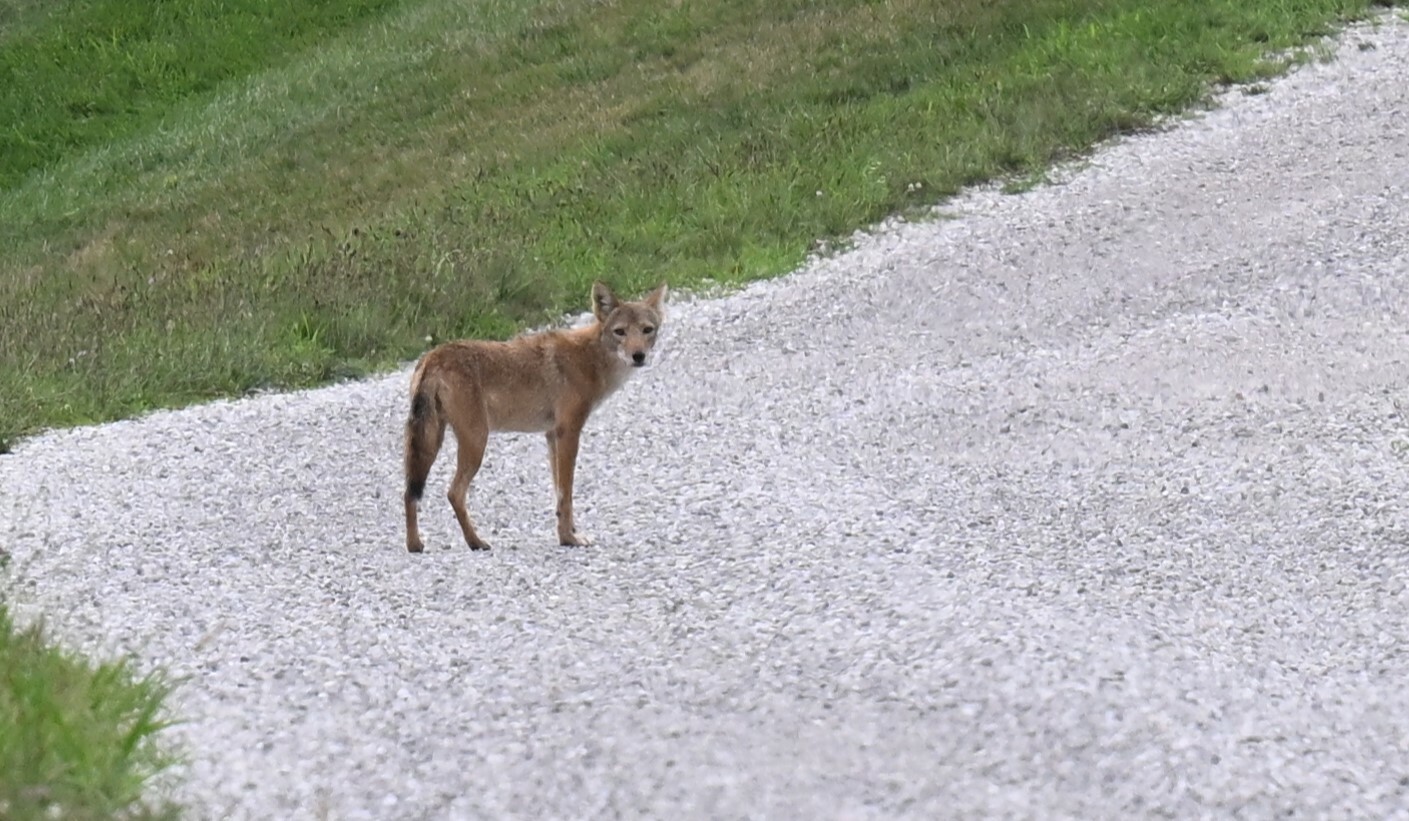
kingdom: Animalia
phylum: Chordata
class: Mammalia
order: Carnivora
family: Canidae
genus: Canis
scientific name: Canis latrans
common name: Coyote
